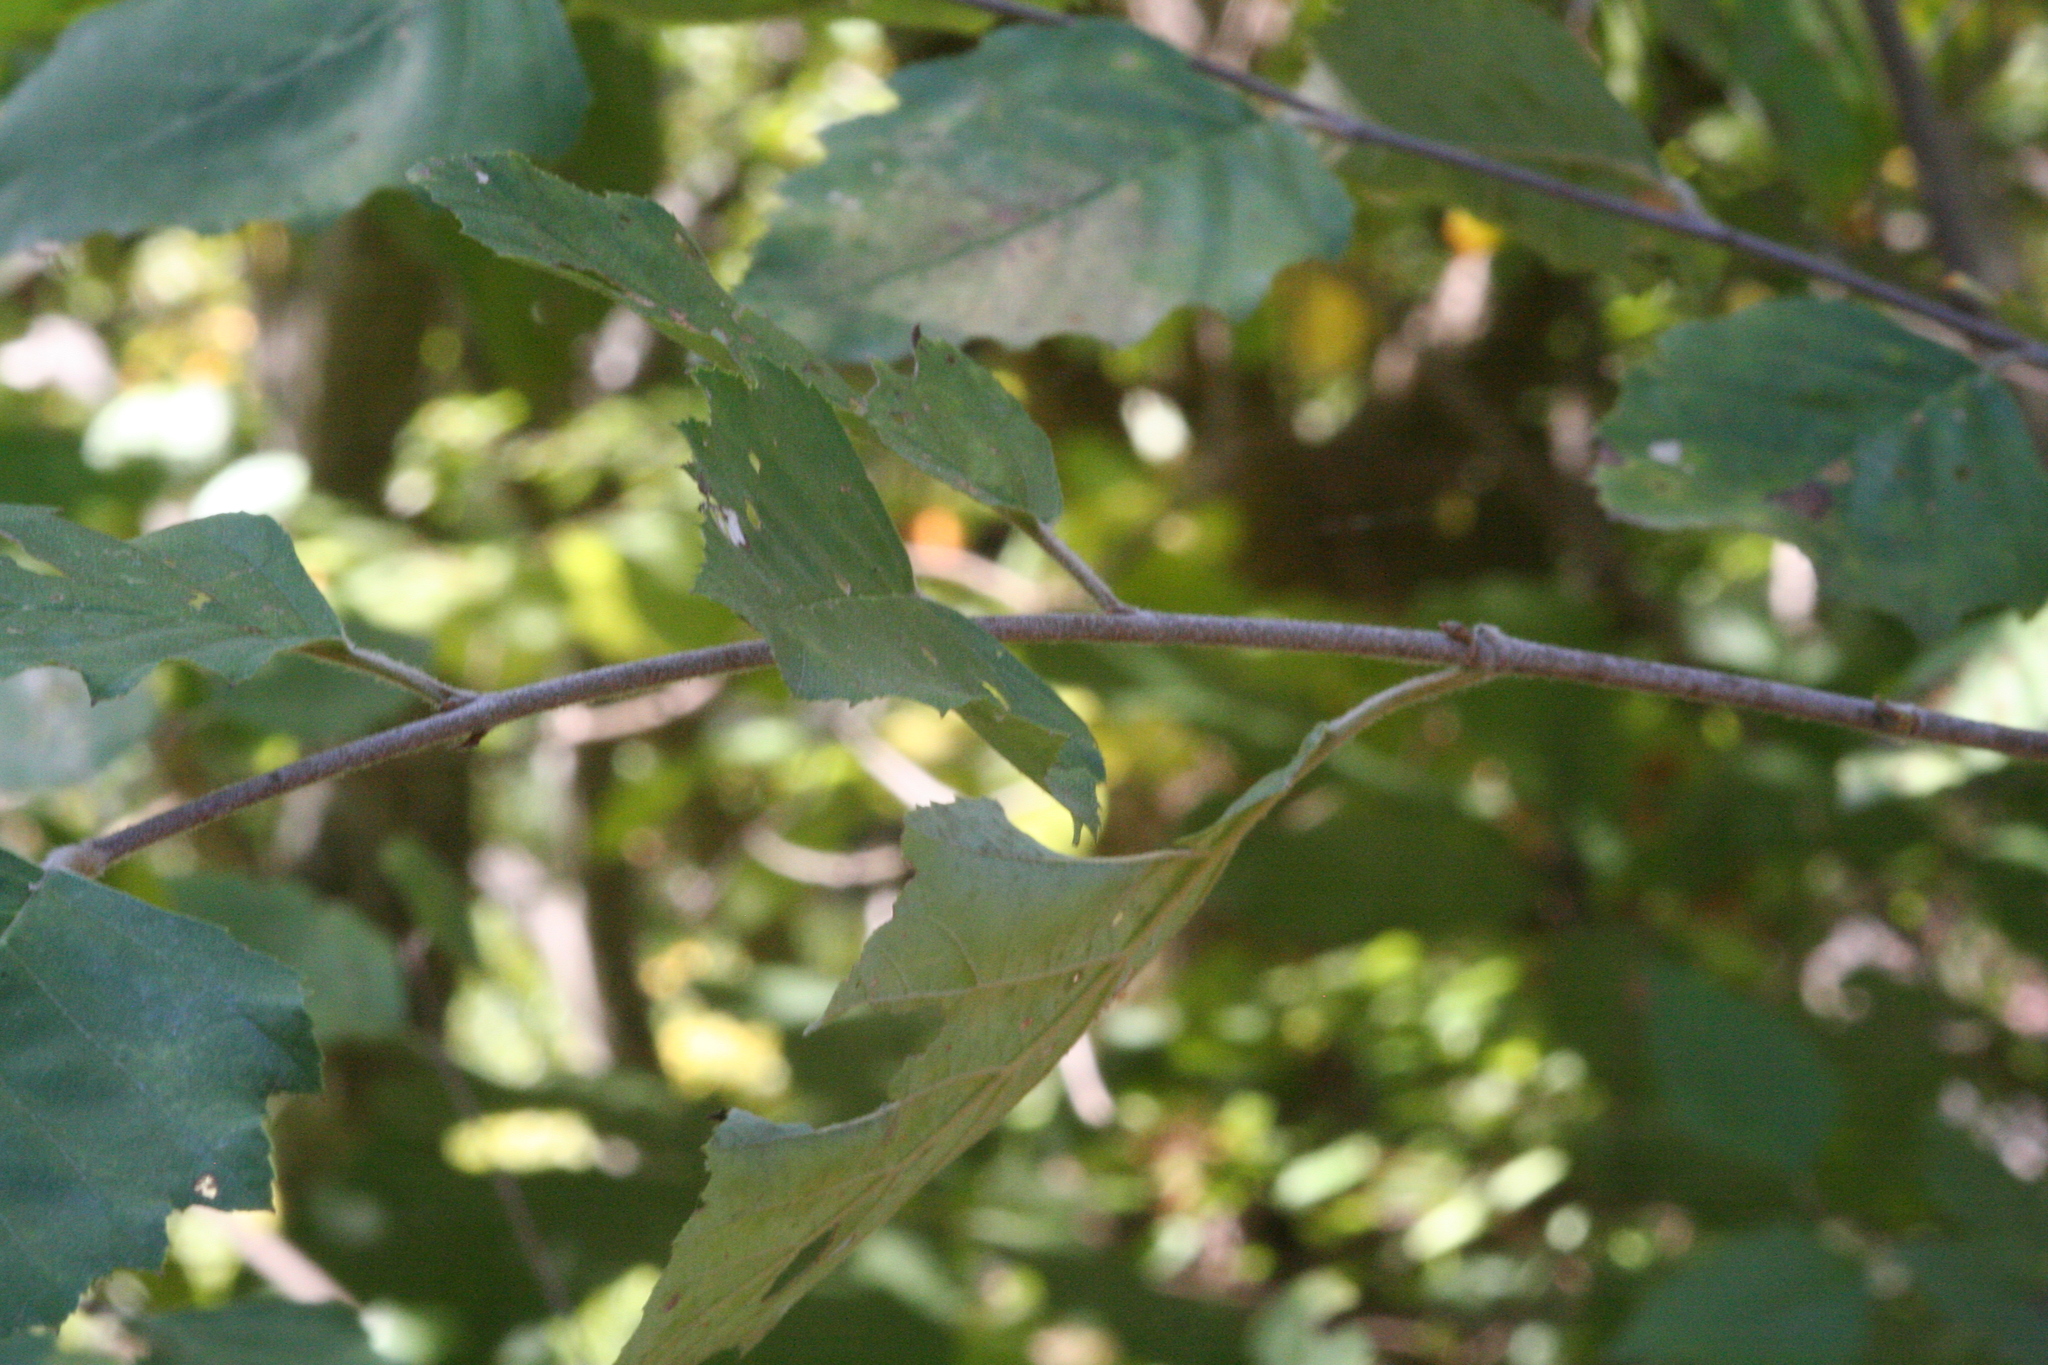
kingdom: Plantae
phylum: Tracheophyta
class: Magnoliopsida
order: Fagales
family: Betulaceae
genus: Betula
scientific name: Betula nigra
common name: Black birch
